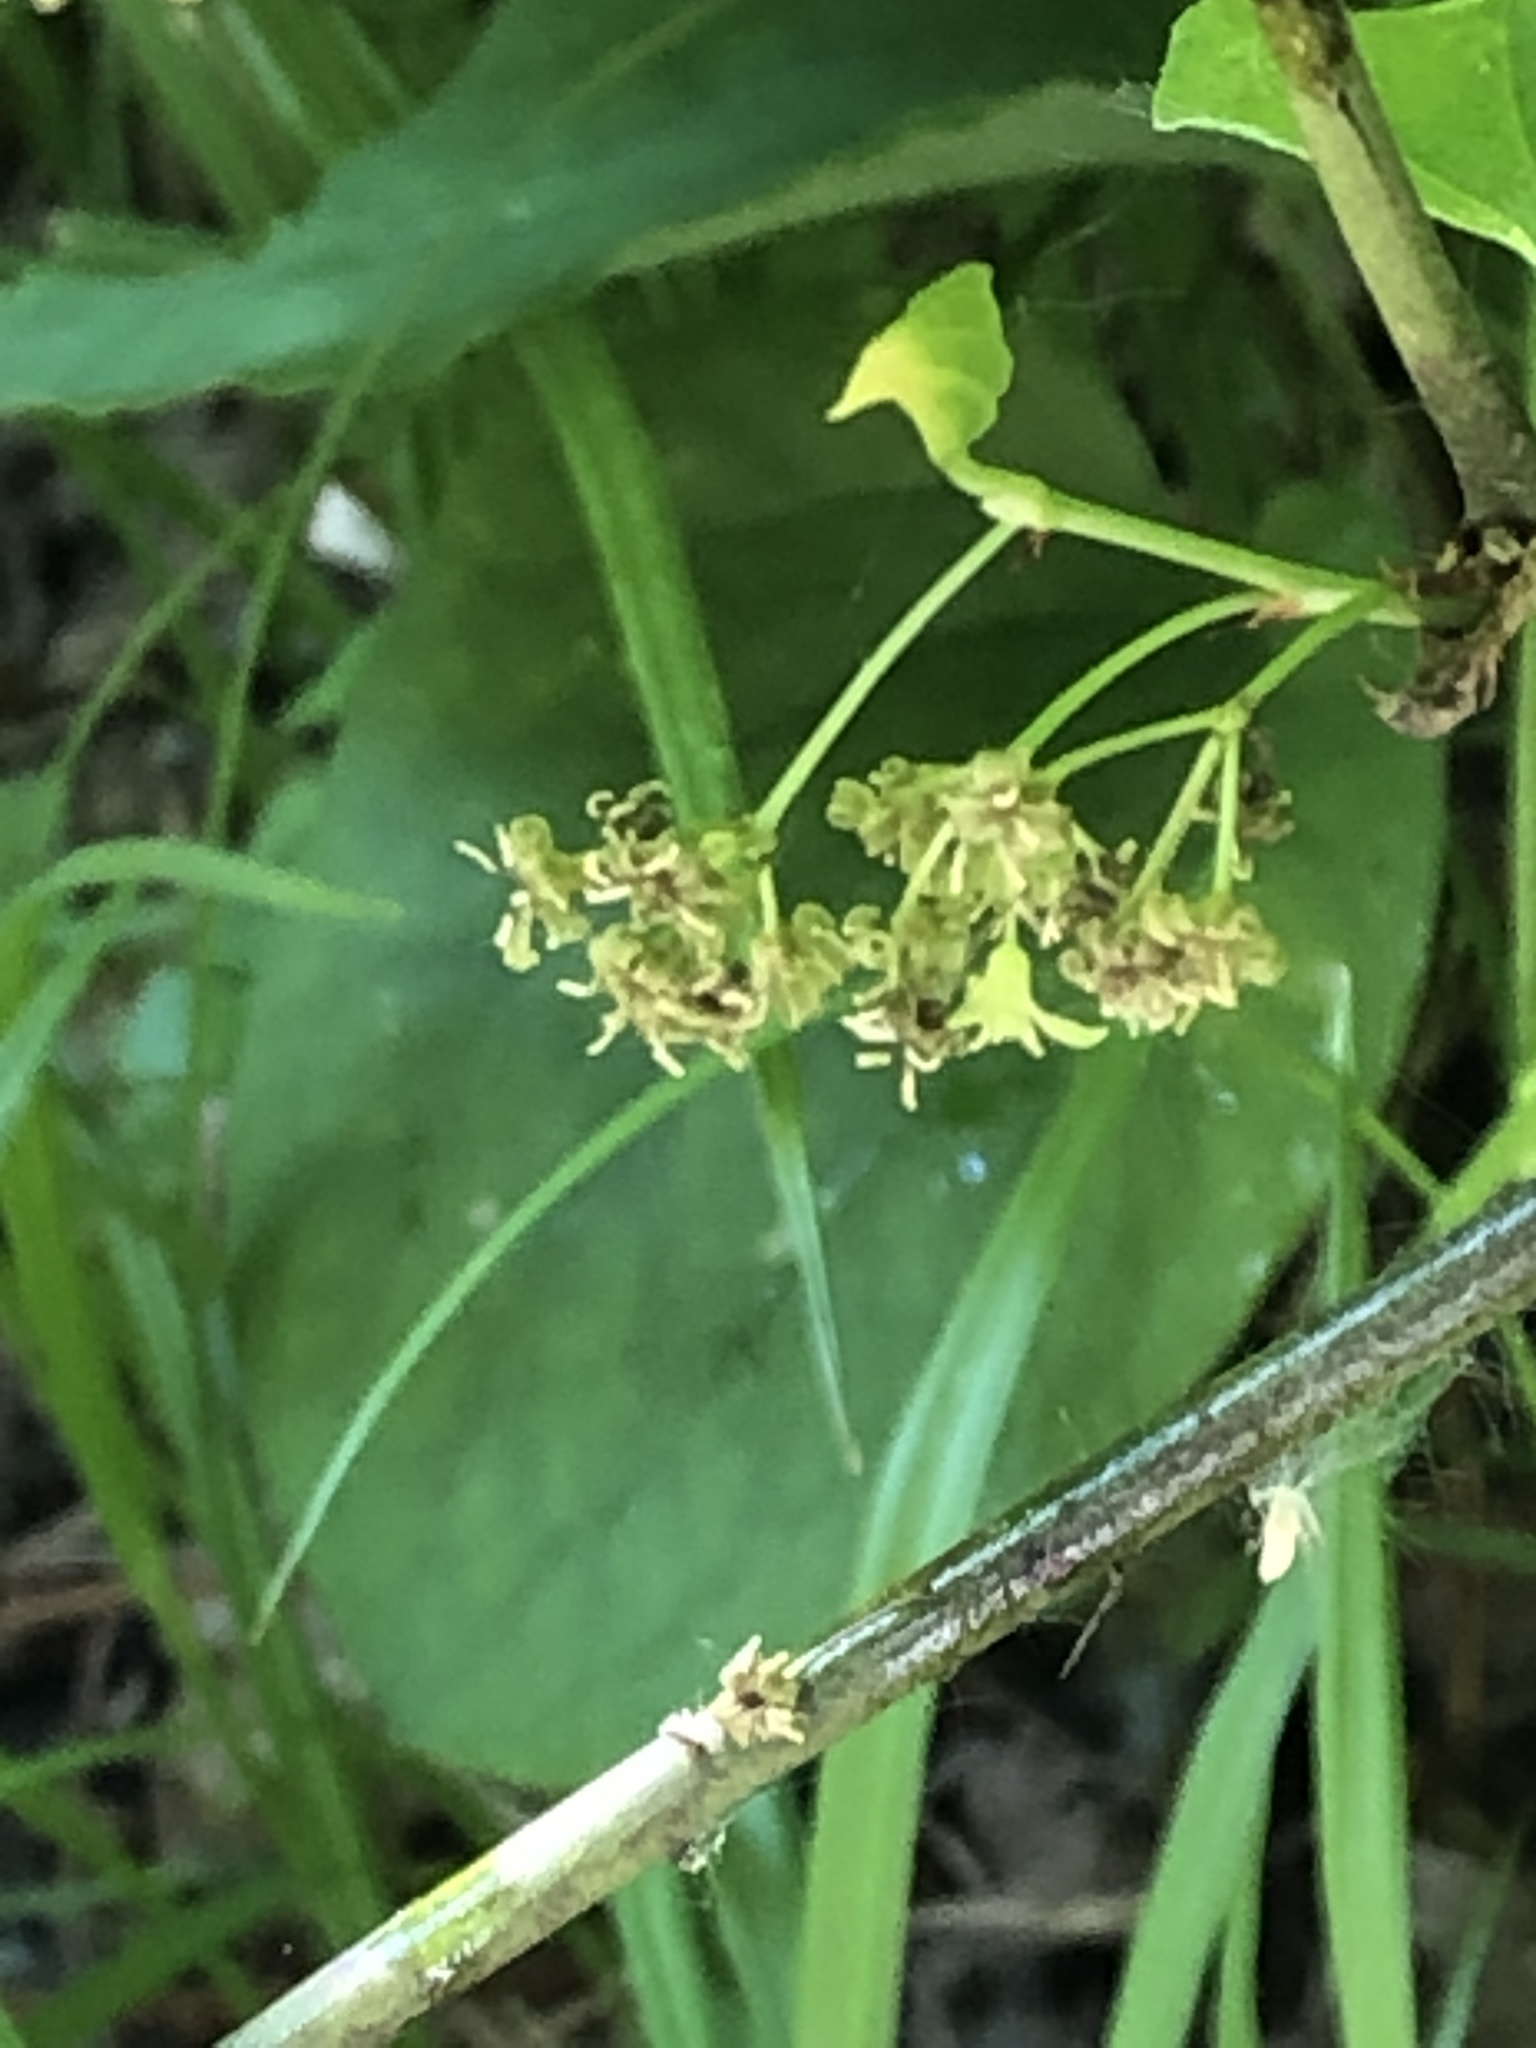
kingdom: Plantae
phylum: Tracheophyta
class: Liliopsida
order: Liliales
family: Smilacaceae
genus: Smilax
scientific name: Smilax tamnoides
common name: Hellfetter
